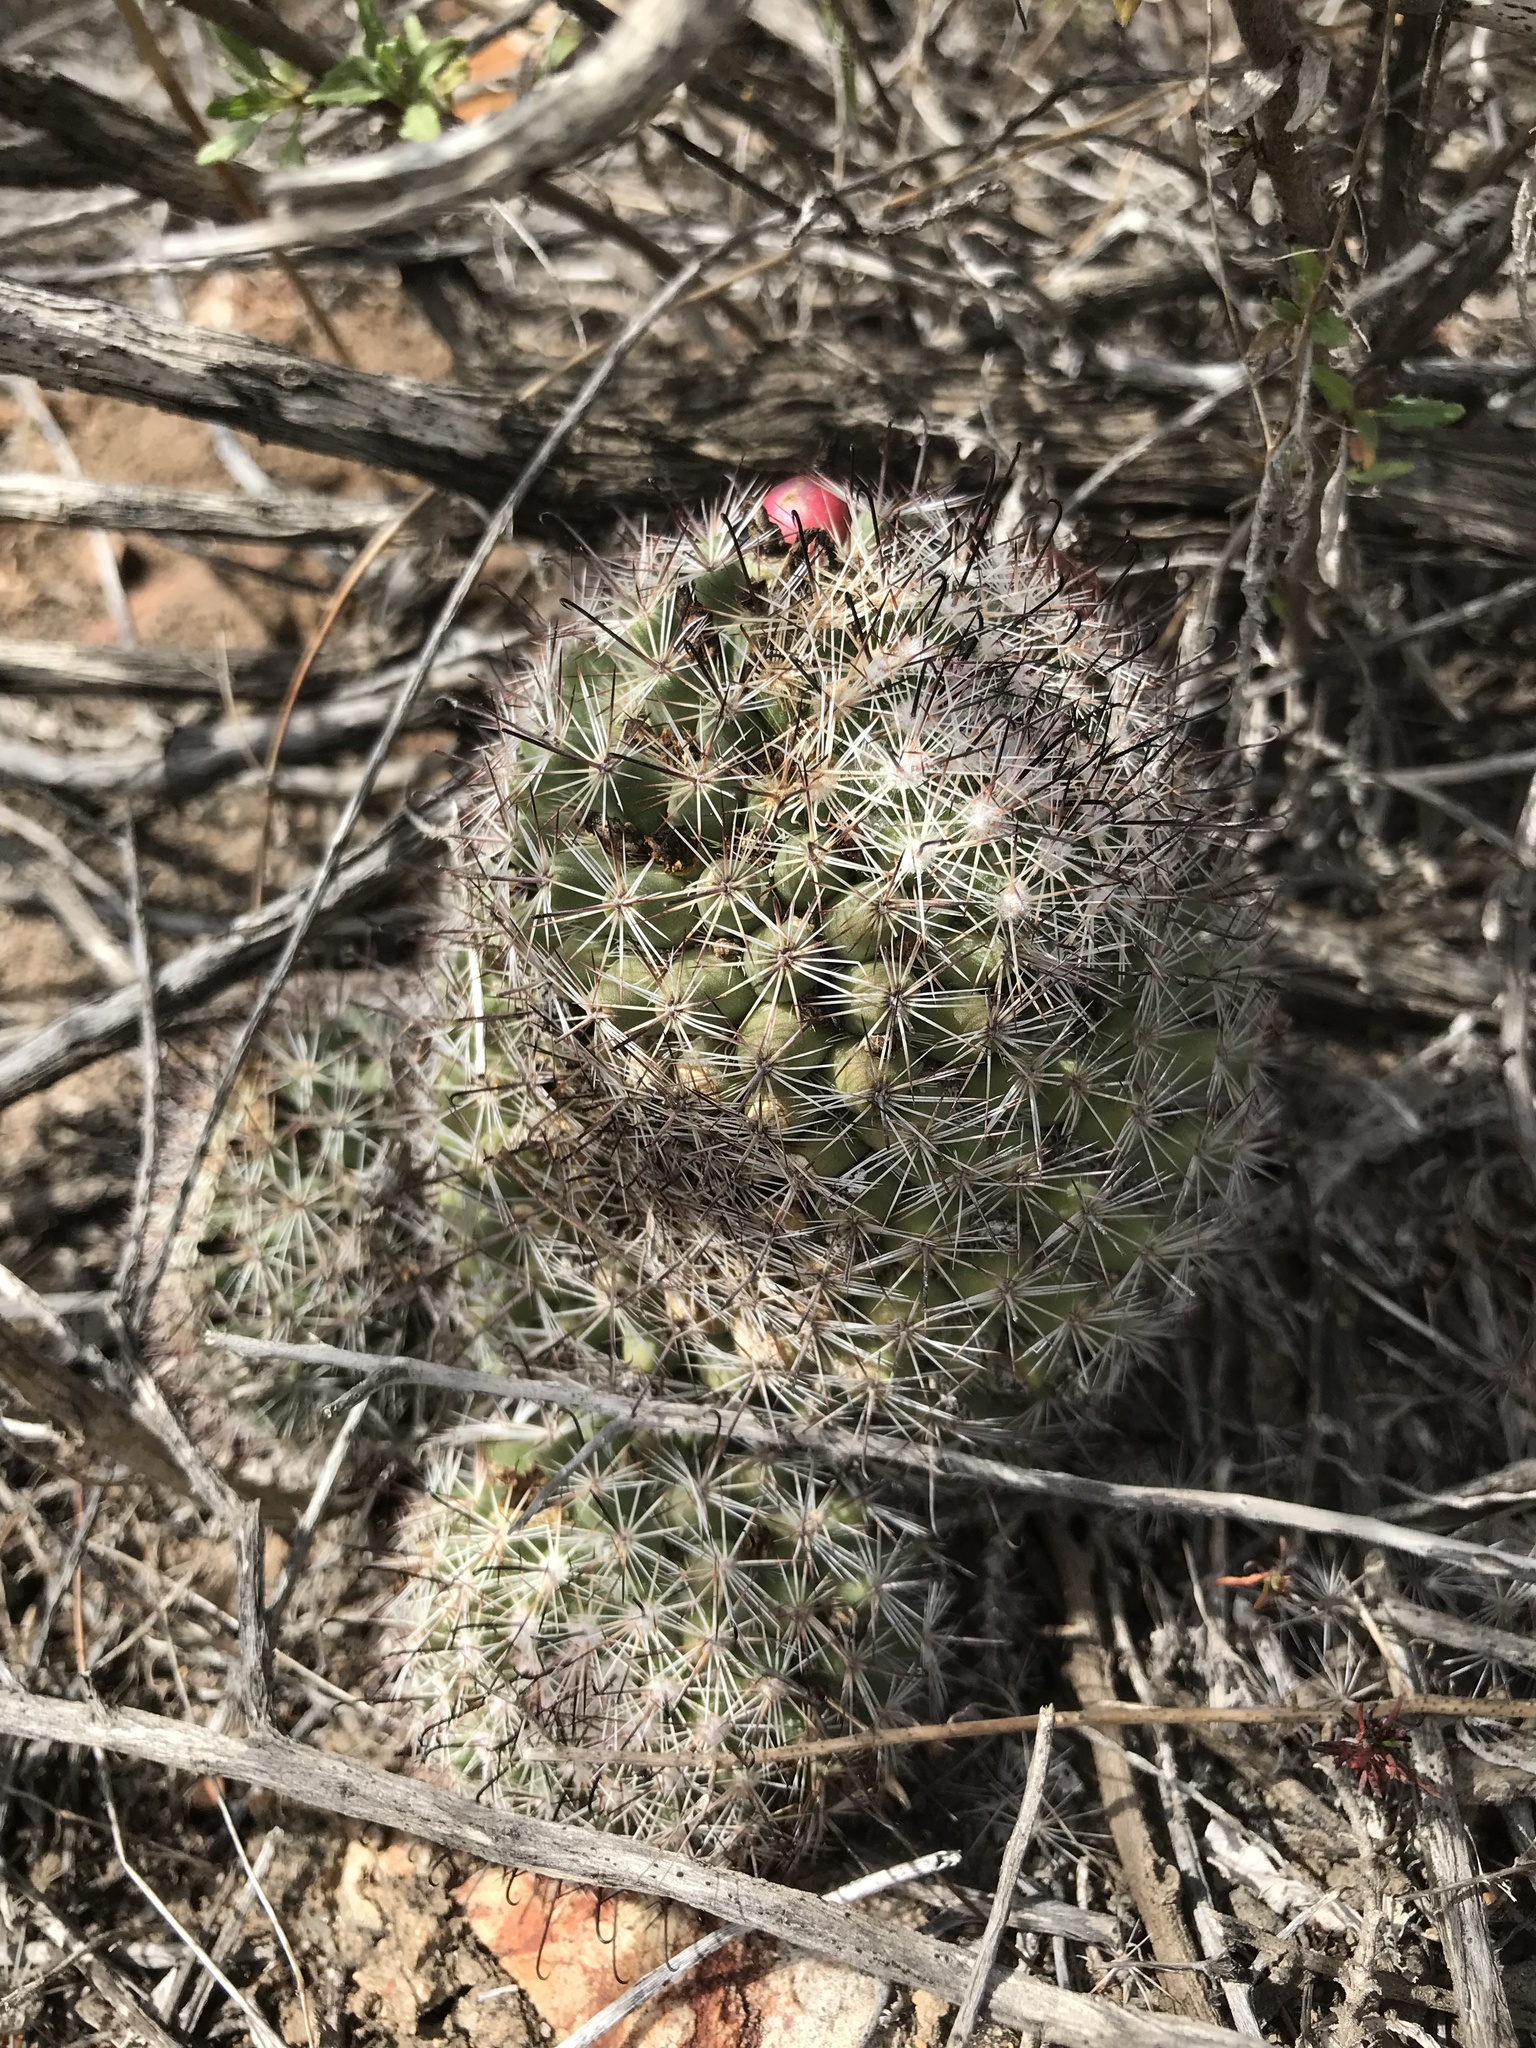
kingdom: Plantae
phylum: Tracheophyta
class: Magnoliopsida
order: Caryophyllales
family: Cactaceae
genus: Cochemiea
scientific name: Cochemiea dioica
